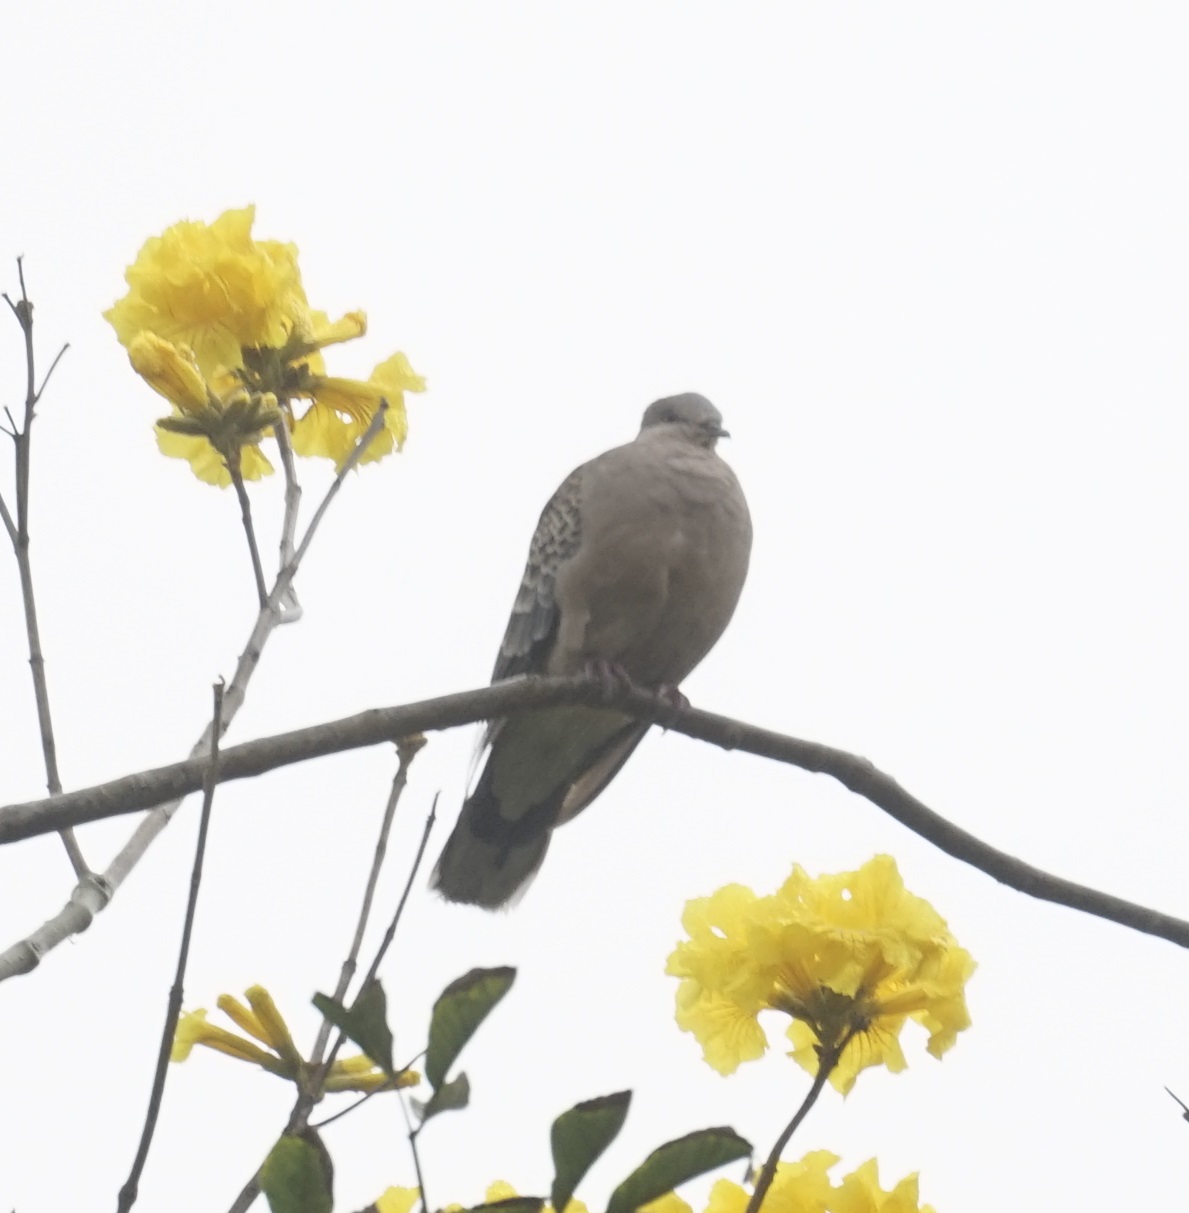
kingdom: Animalia
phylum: Chordata
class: Aves
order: Columbiformes
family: Columbidae
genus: Streptopelia
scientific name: Streptopelia orientalis
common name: Oriental turtle dove
